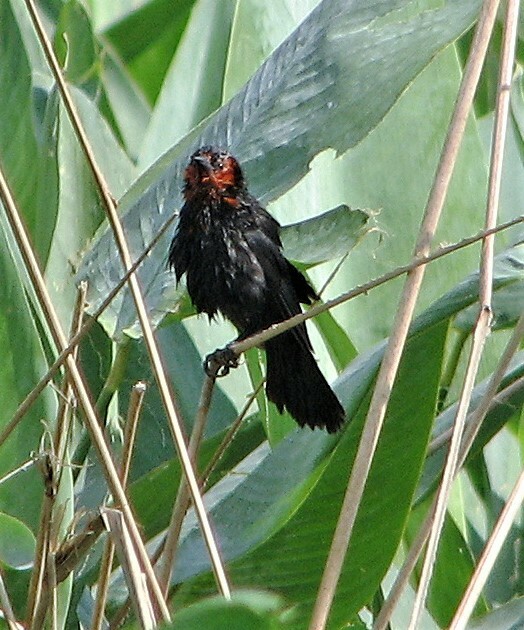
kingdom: Animalia
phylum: Chordata
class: Aves
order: Passeriformes
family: Icteridae
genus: Amblyramphus
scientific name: Amblyramphus holosericeus
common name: Scarlet-headed blackbird
